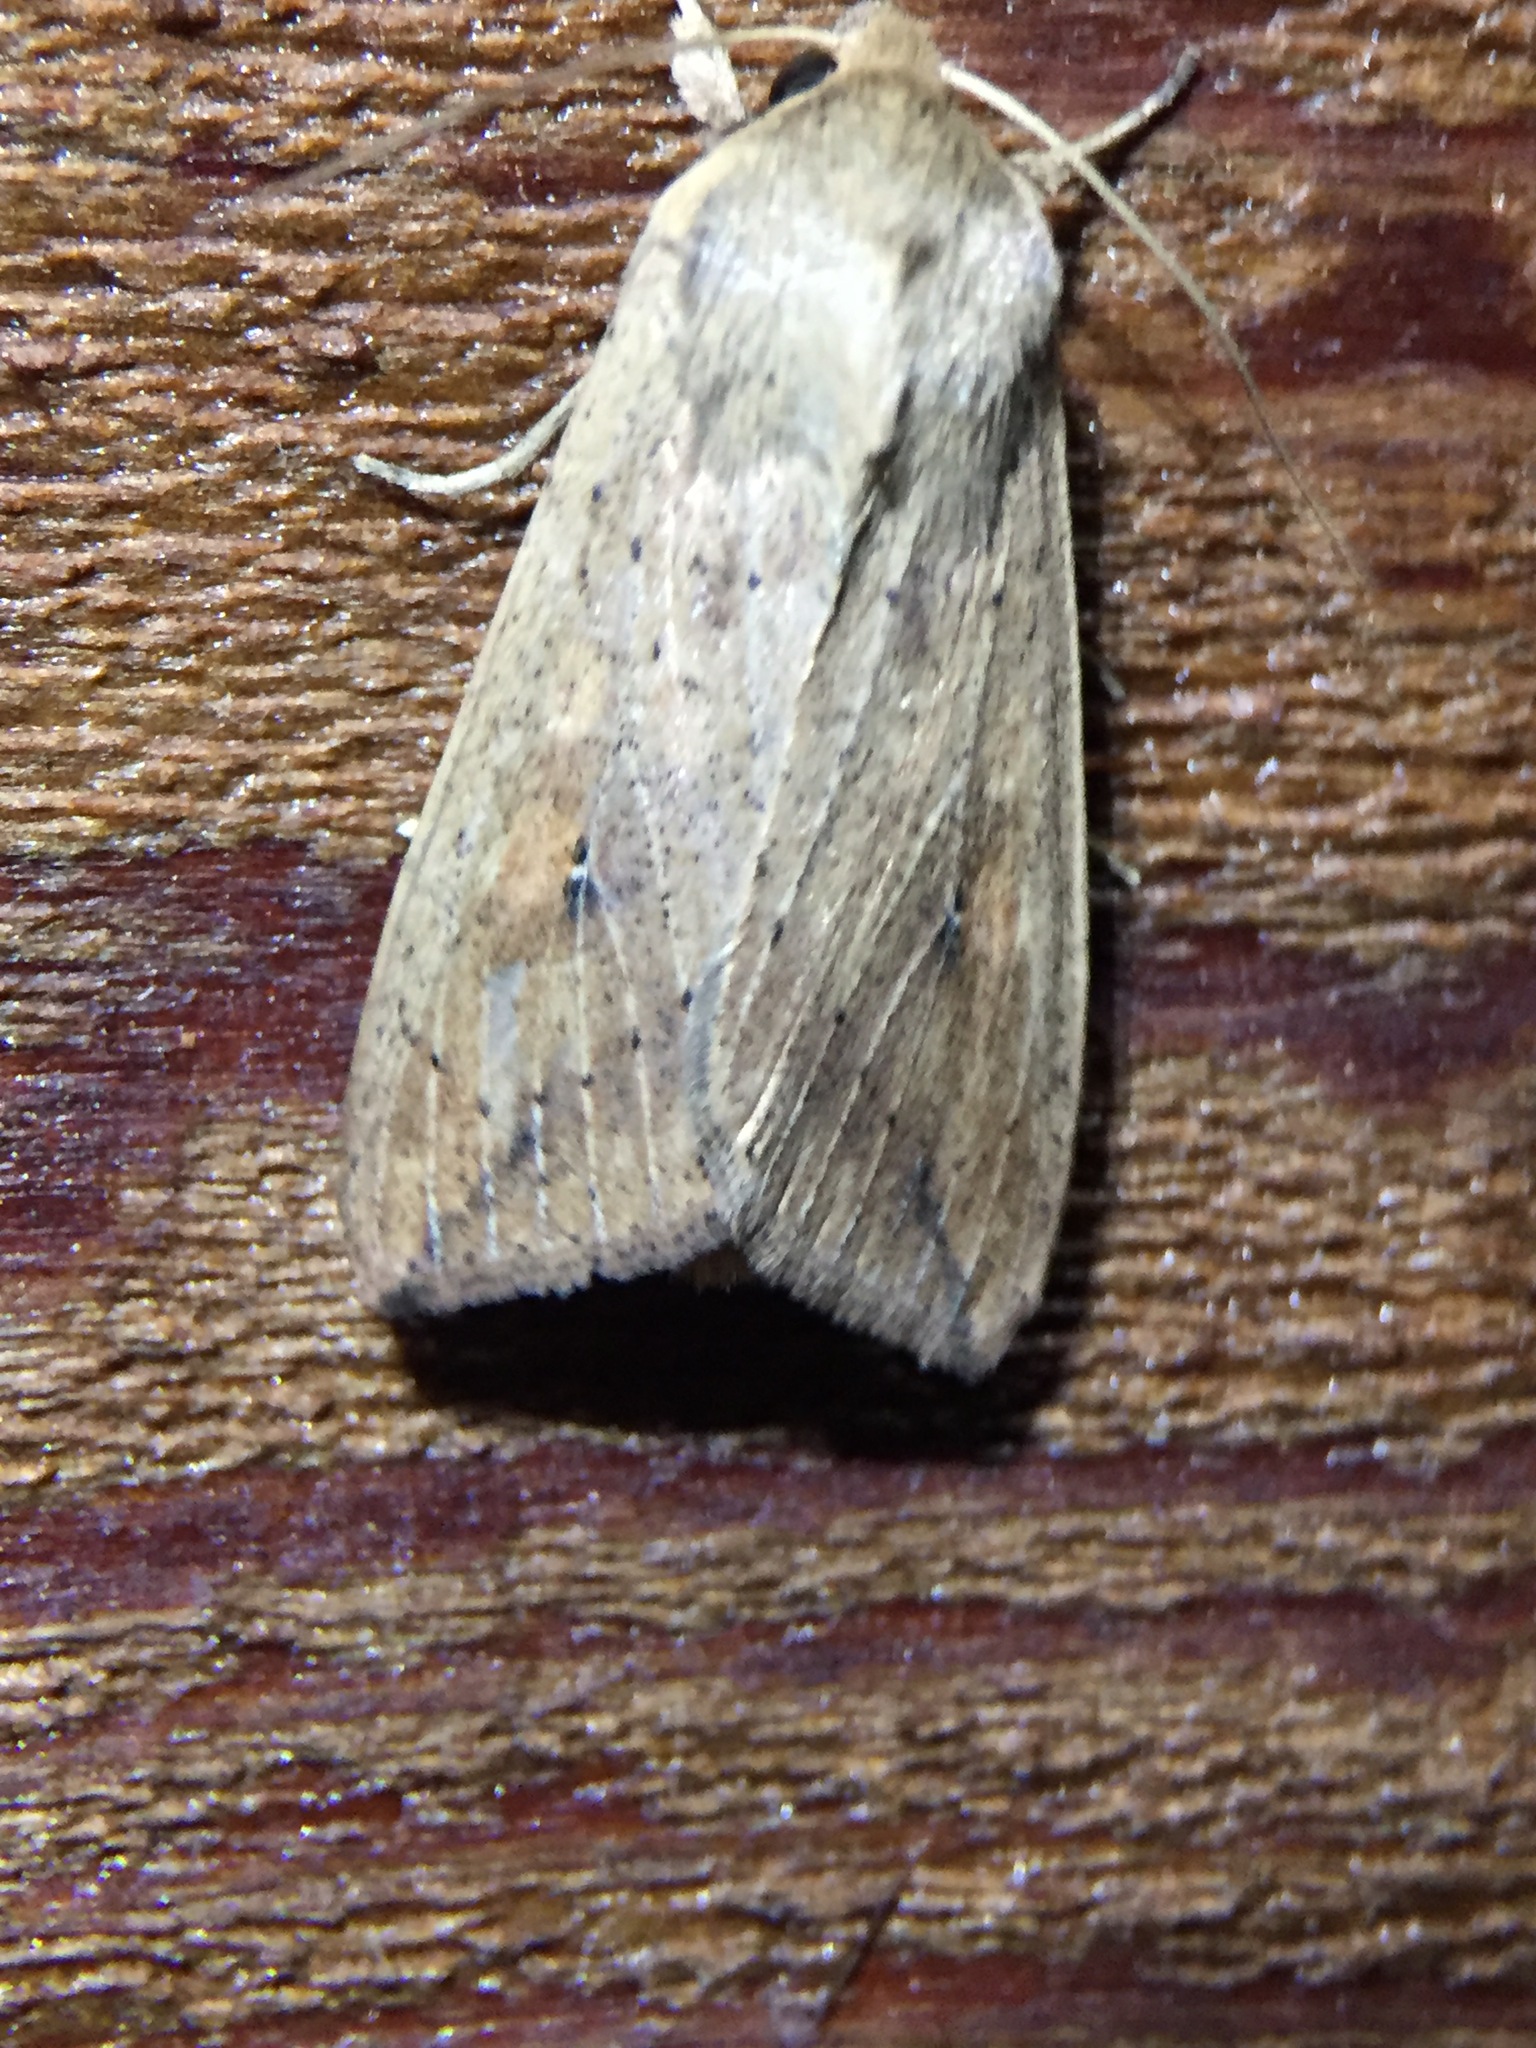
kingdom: Animalia
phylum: Arthropoda
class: Insecta
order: Lepidoptera
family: Noctuidae
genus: Mythimna
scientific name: Mythimna separata
